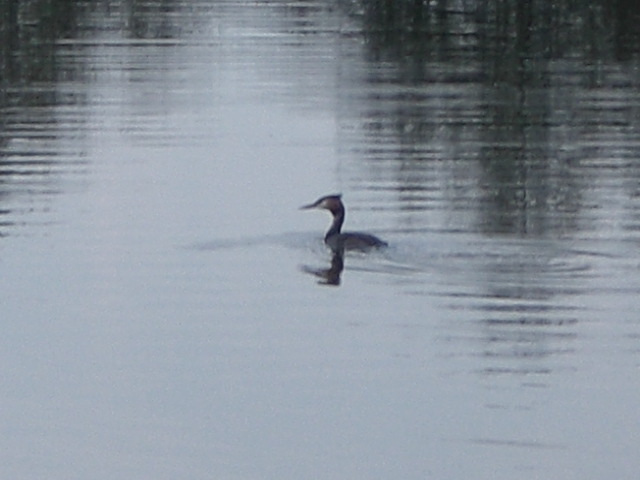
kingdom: Animalia
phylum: Chordata
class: Aves
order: Podicipediformes
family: Podicipedidae
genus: Podiceps
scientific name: Podiceps cristatus
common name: Great crested grebe
